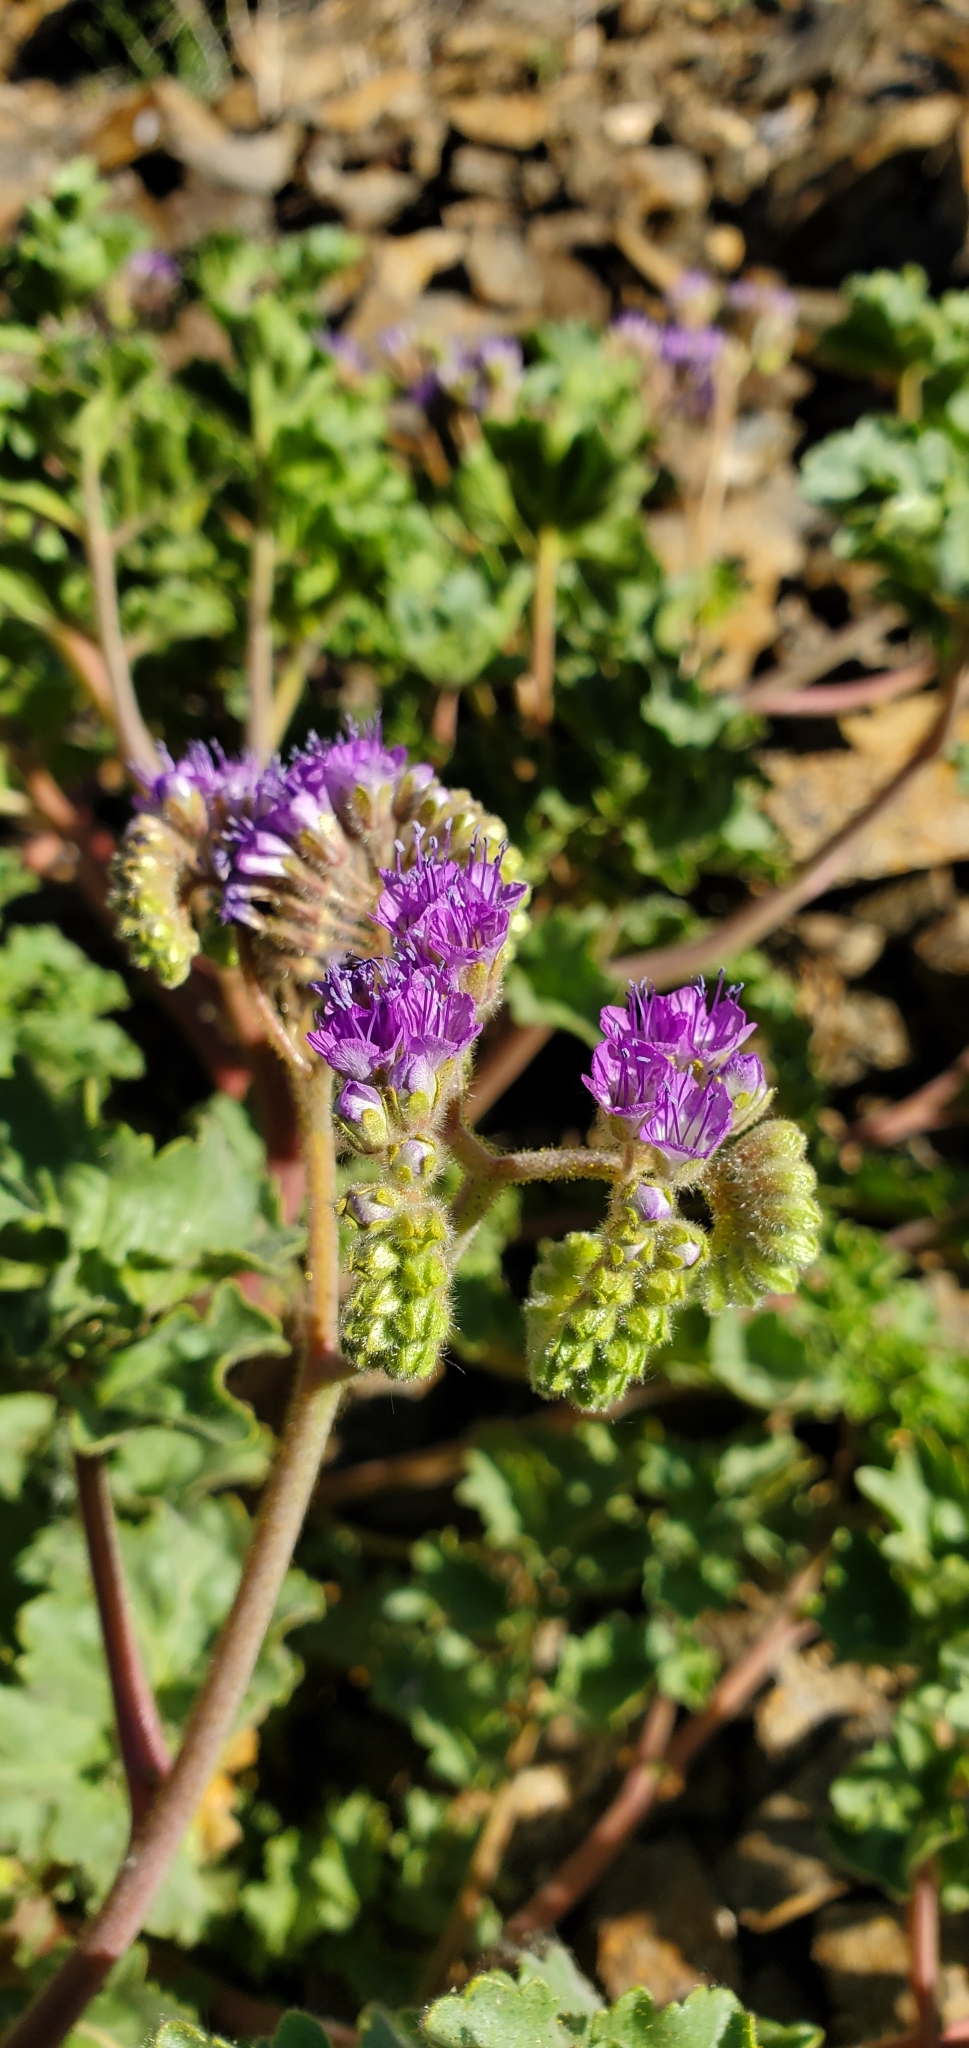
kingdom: Plantae
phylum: Tracheophyta
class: Magnoliopsida
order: Boraginales
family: Hydrophyllaceae
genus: Phacelia
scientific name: Phacelia pedicellata
